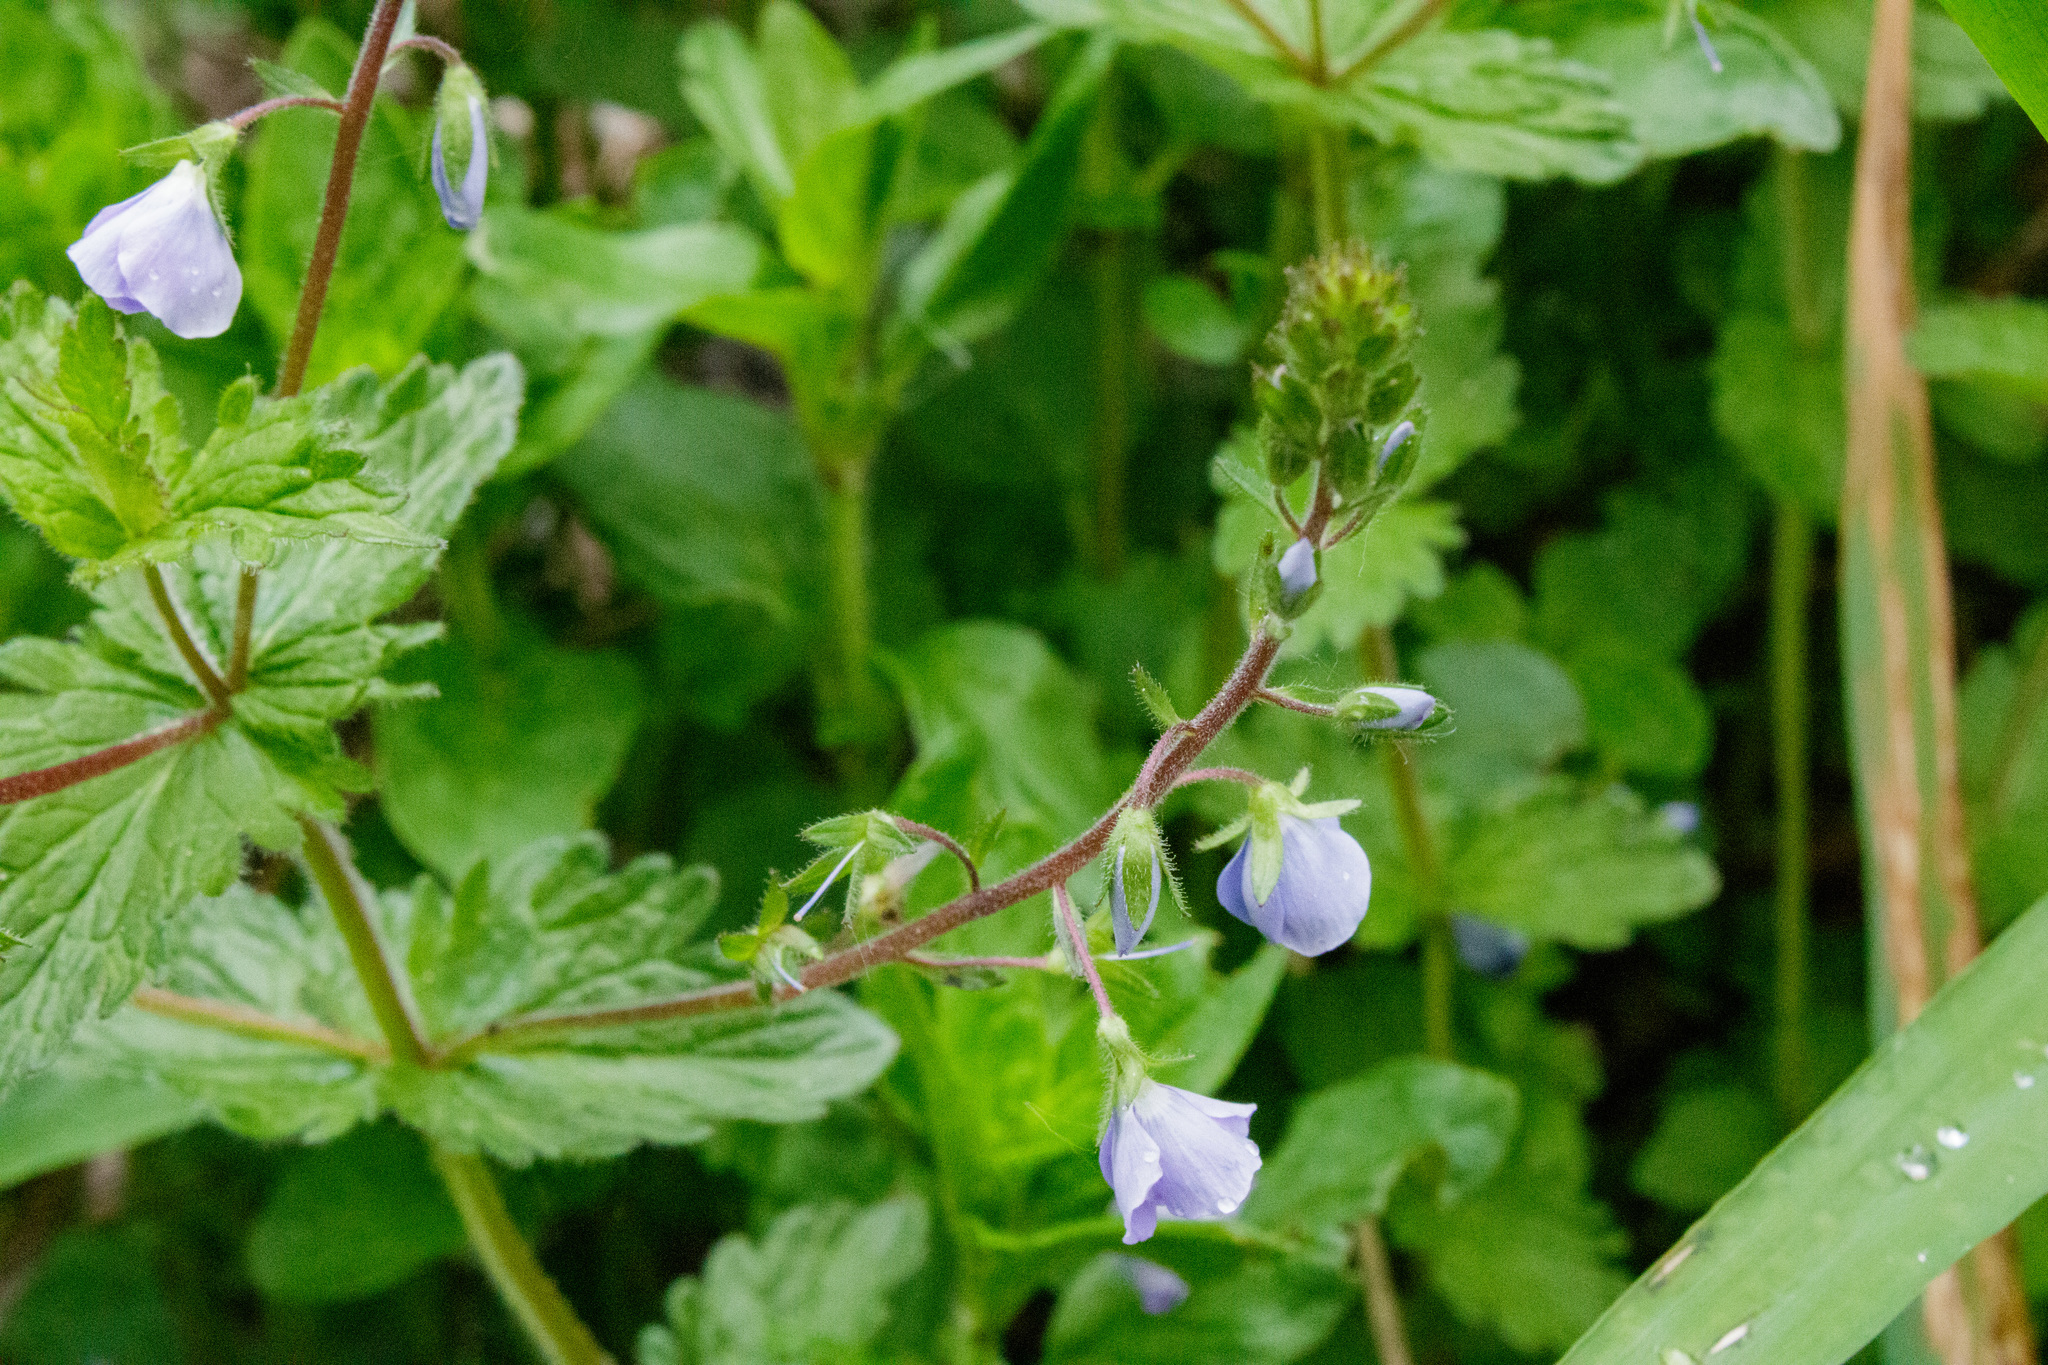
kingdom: Plantae
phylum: Tracheophyta
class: Magnoliopsida
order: Lamiales
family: Plantaginaceae
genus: Veronica
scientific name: Veronica chamaedrys
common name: Germander speedwell
